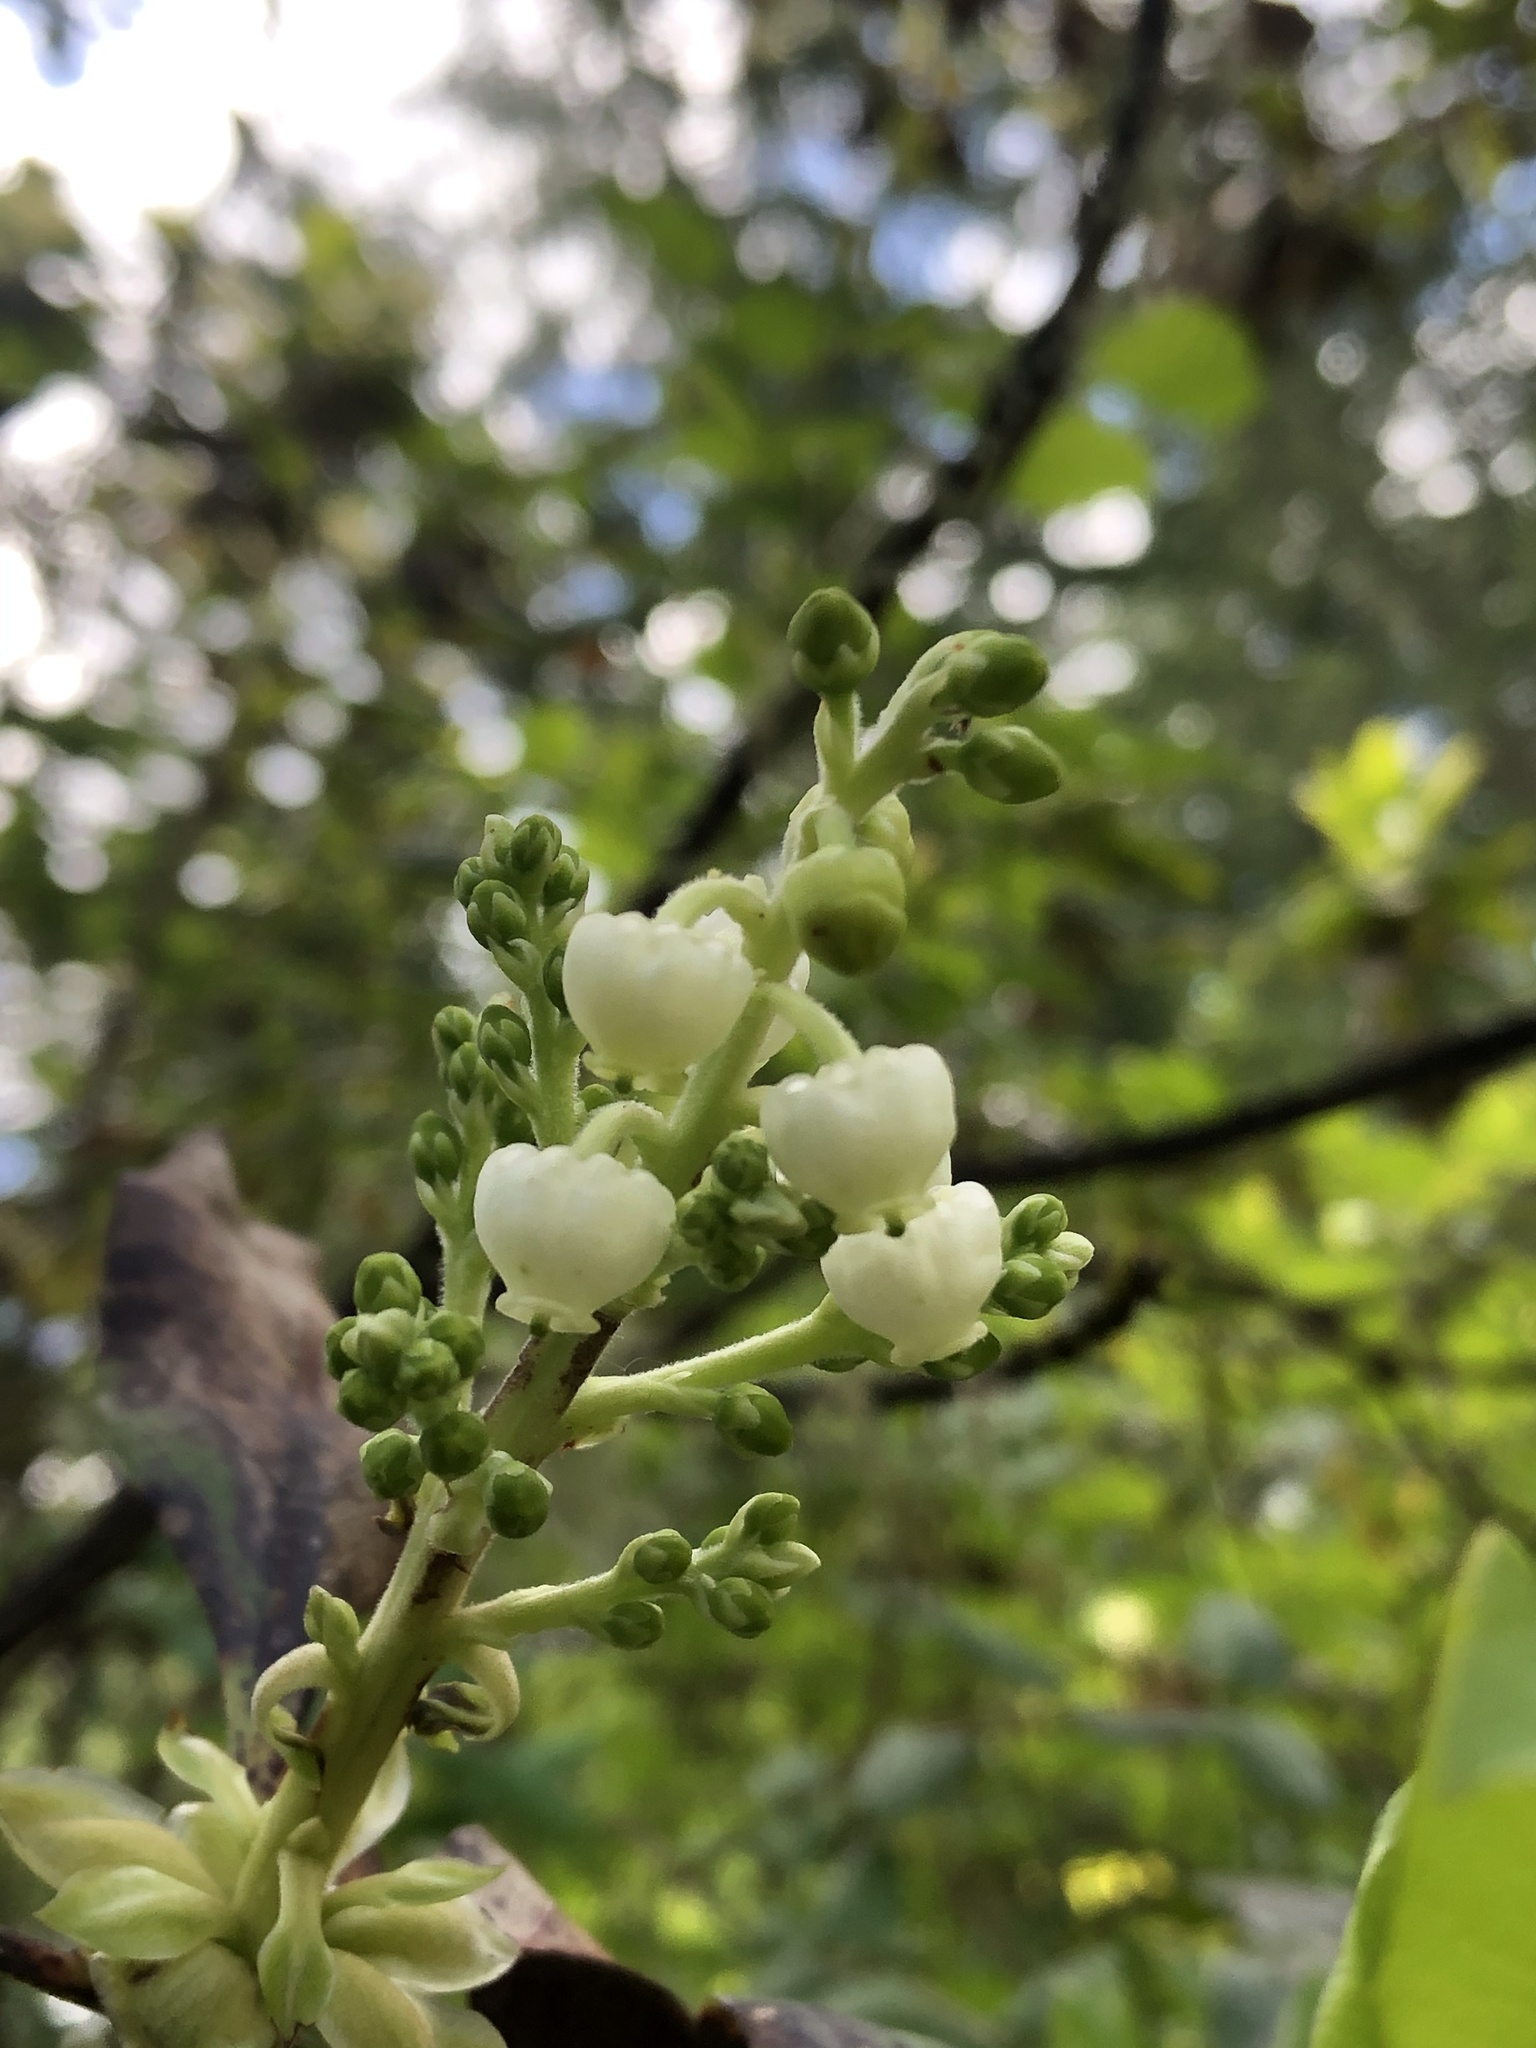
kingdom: Plantae
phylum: Tracheophyta
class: Magnoliopsida
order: Ericales
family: Ericaceae
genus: Arbutus
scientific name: Arbutus menziesii
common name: Pacific madrone
